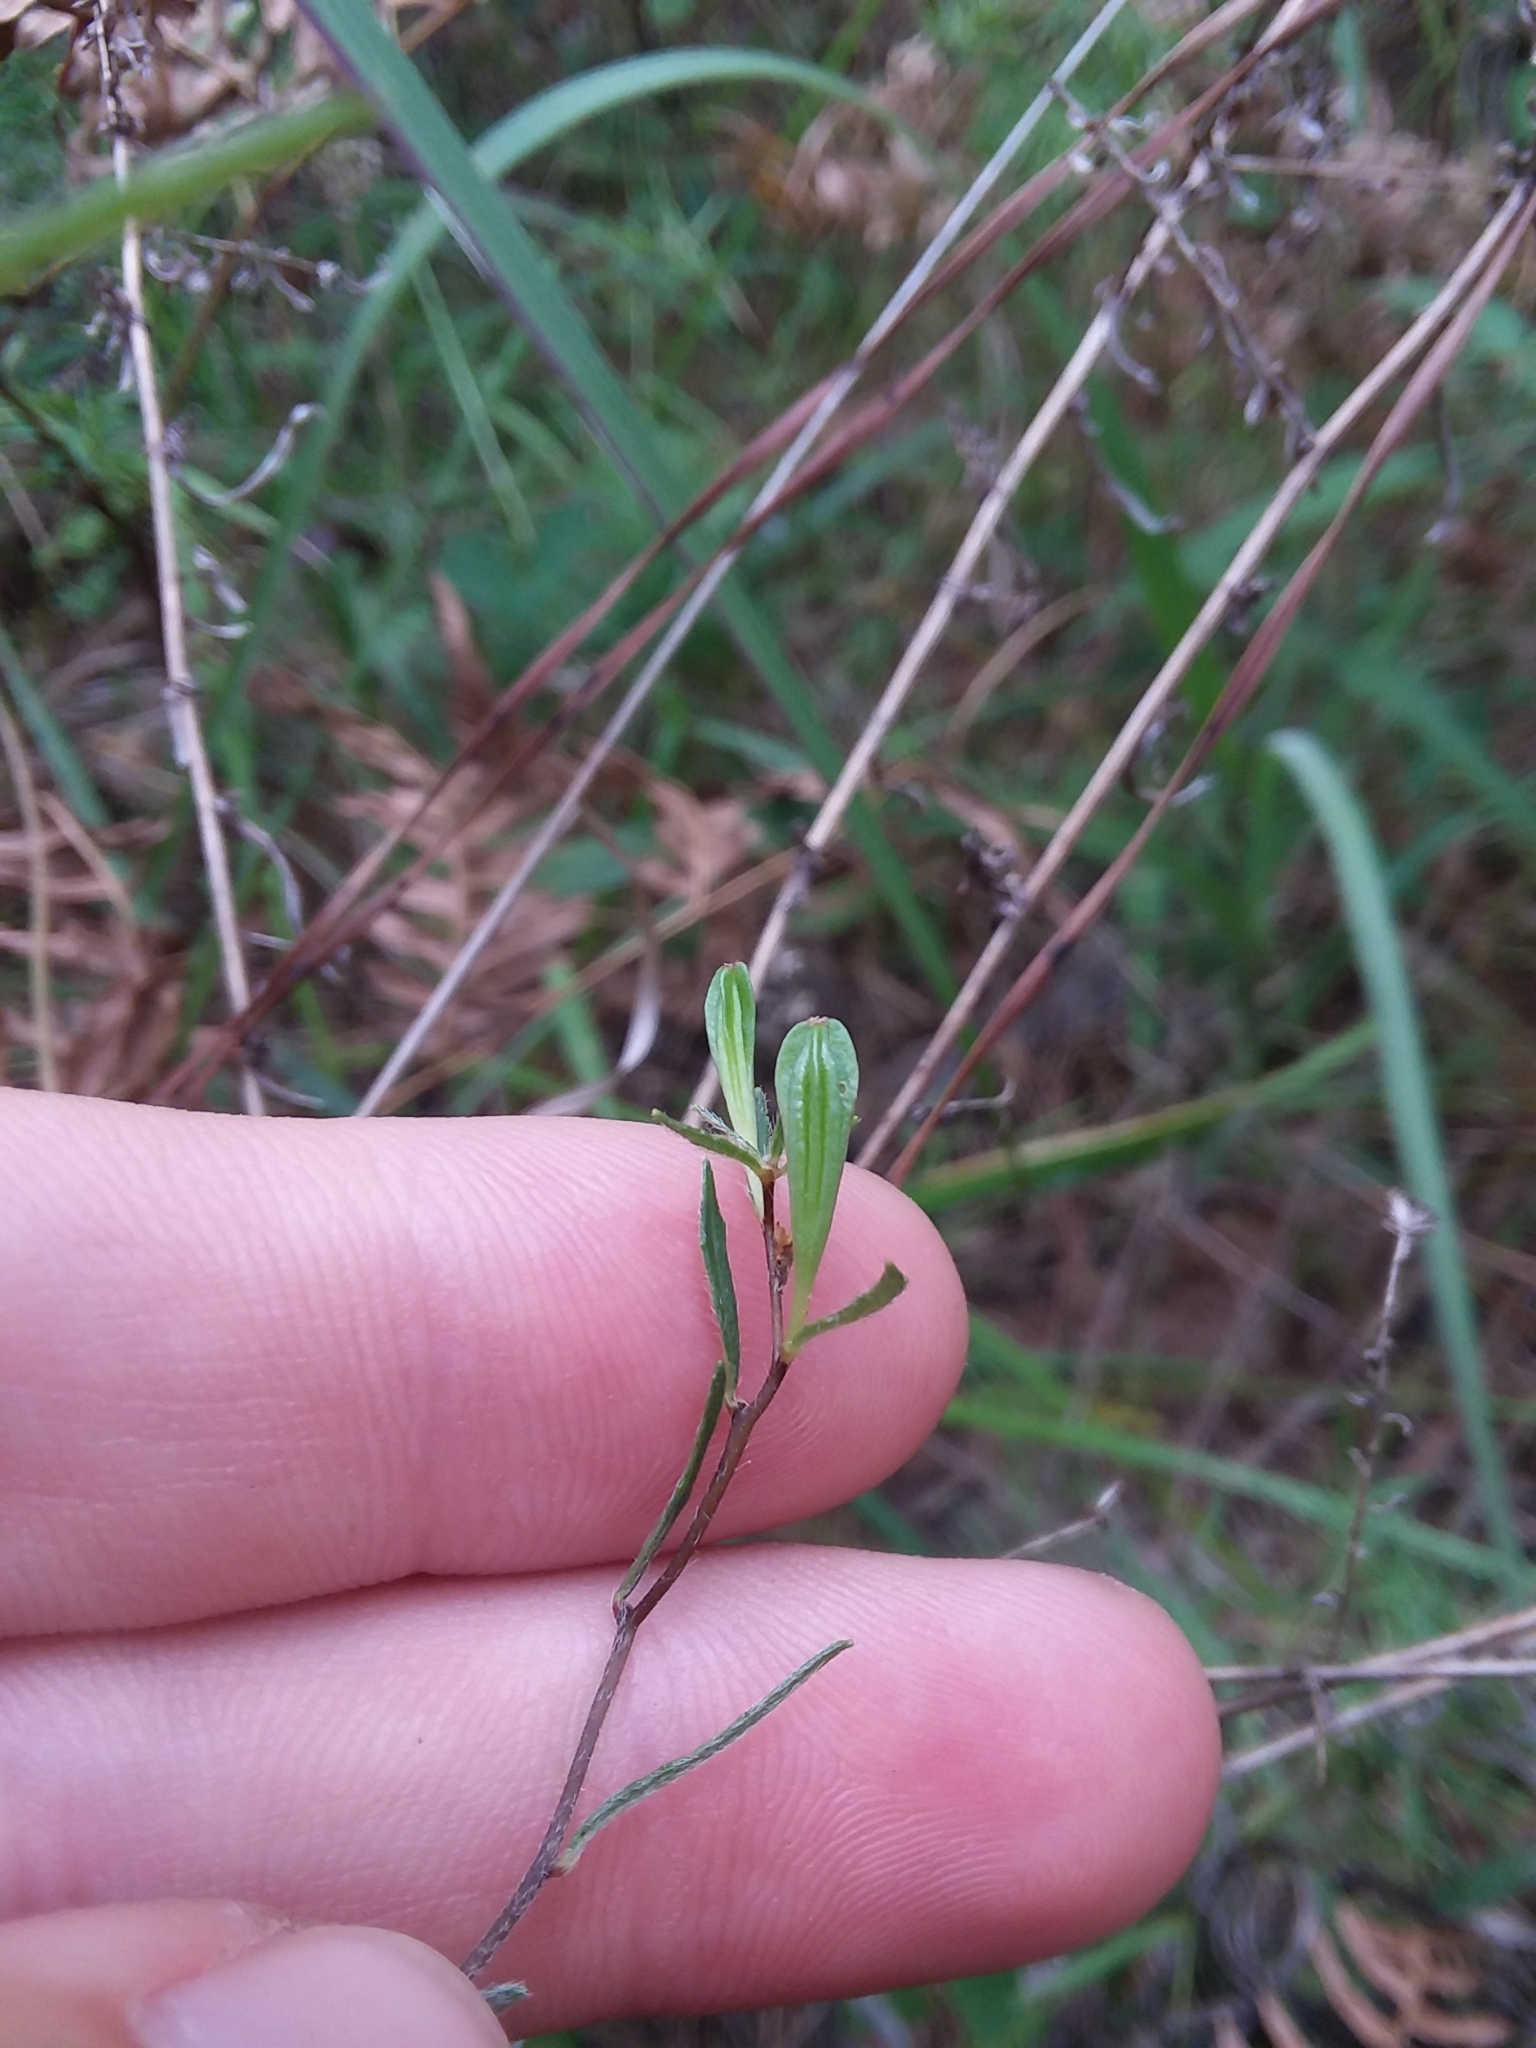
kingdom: Plantae
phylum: Tracheophyta
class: Magnoliopsida
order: Myrtales
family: Onagraceae
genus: Oenothera
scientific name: Oenothera fruticosa
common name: Southern sundrops
